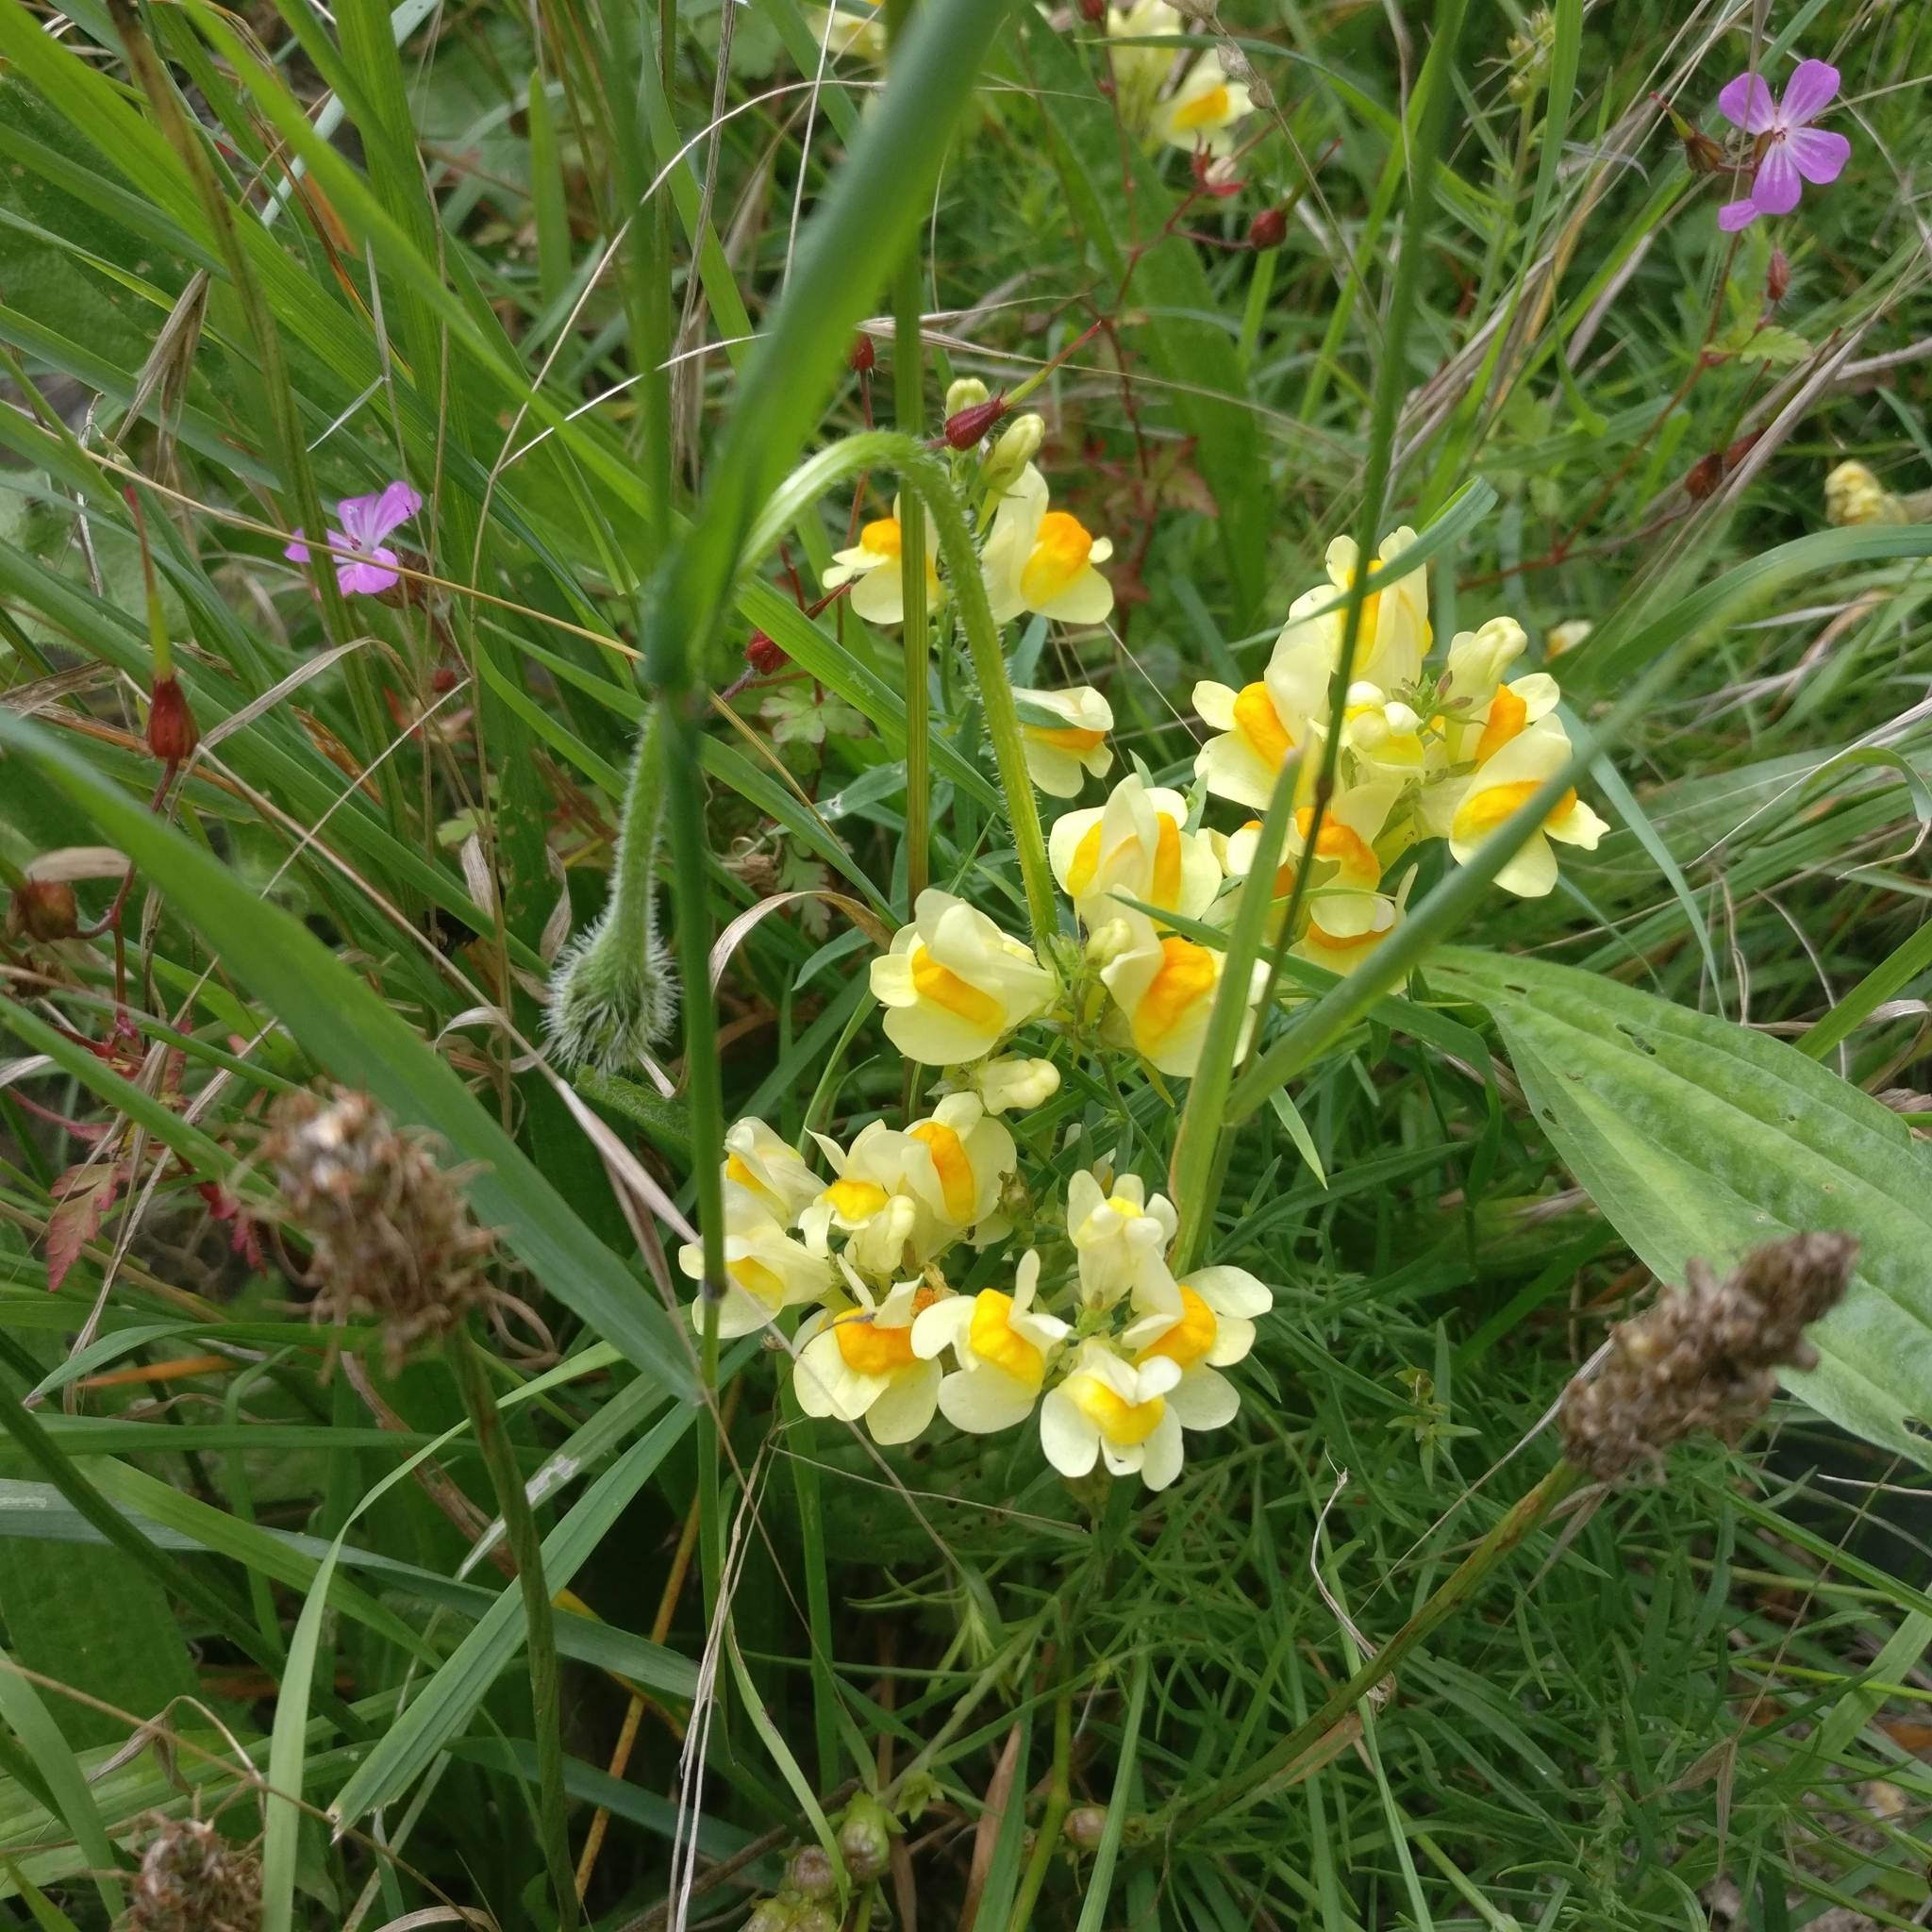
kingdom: Plantae
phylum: Tracheophyta
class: Magnoliopsida
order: Lamiales
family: Plantaginaceae
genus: Linaria
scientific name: Linaria vulgaris
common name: Butter and eggs
